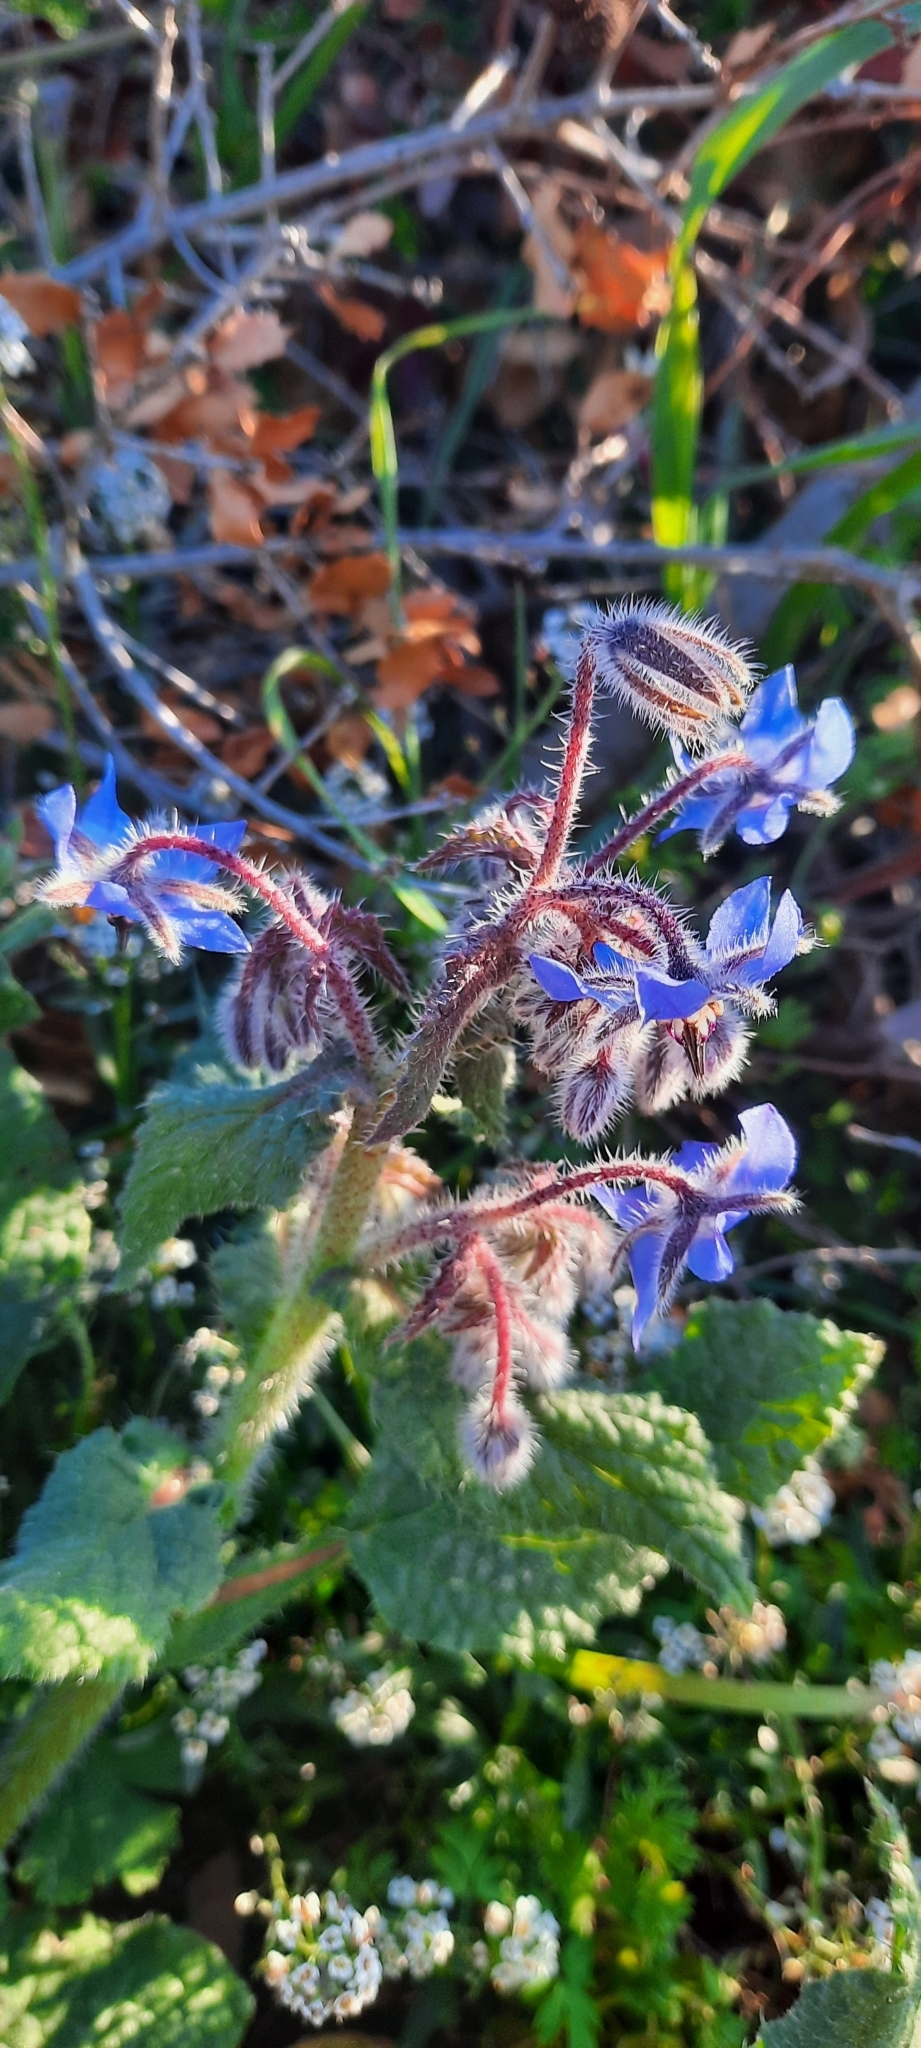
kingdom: Plantae
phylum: Tracheophyta
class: Magnoliopsida
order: Boraginales
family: Boraginaceae
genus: Borago
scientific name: Borago officinalis
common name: Borage
